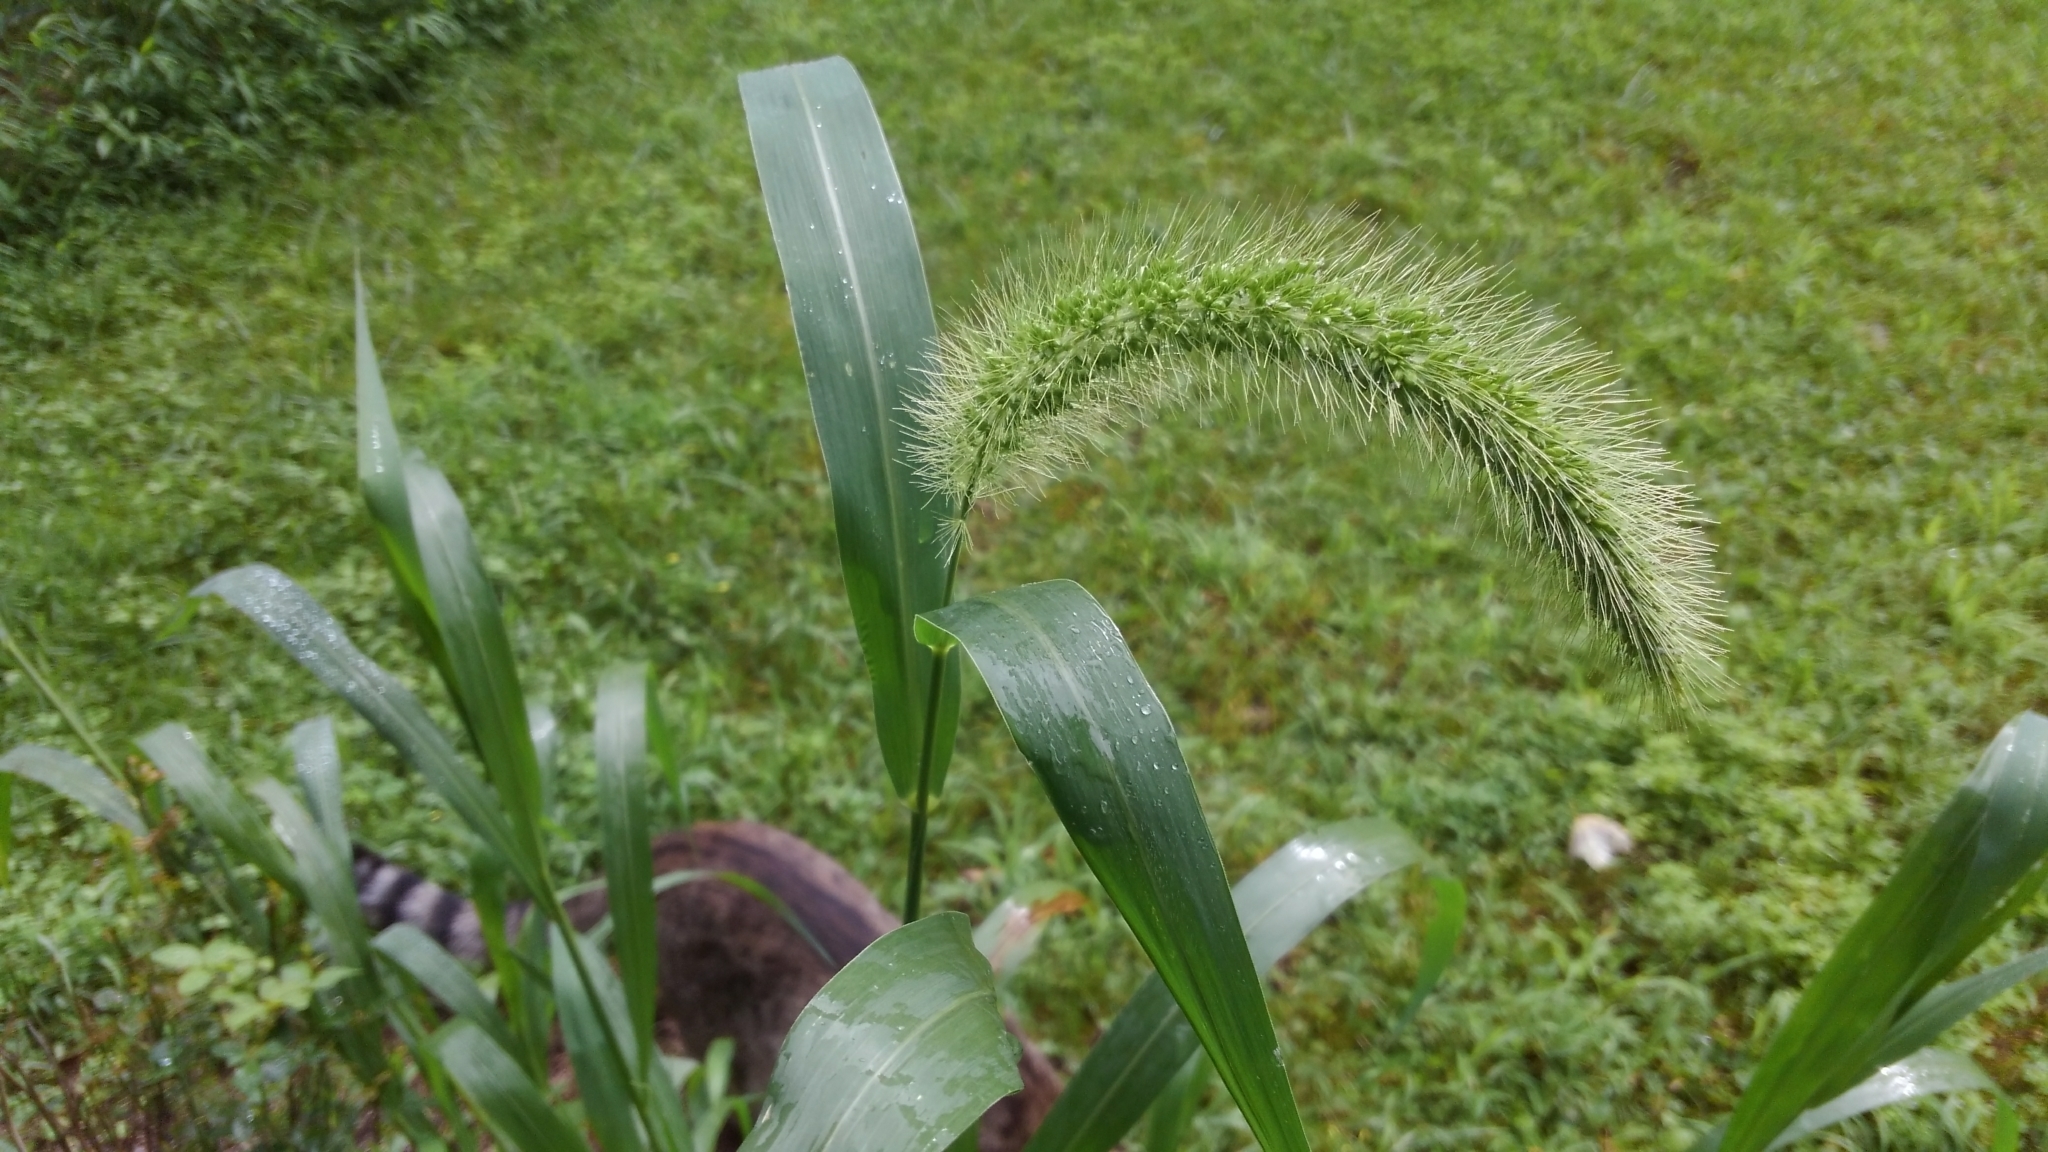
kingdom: Plantae
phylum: Tracheophyta
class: Liliopsida
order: Poales
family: Poaceae
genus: Setaria
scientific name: Setaria faberi
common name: Nodding bristle-grass
